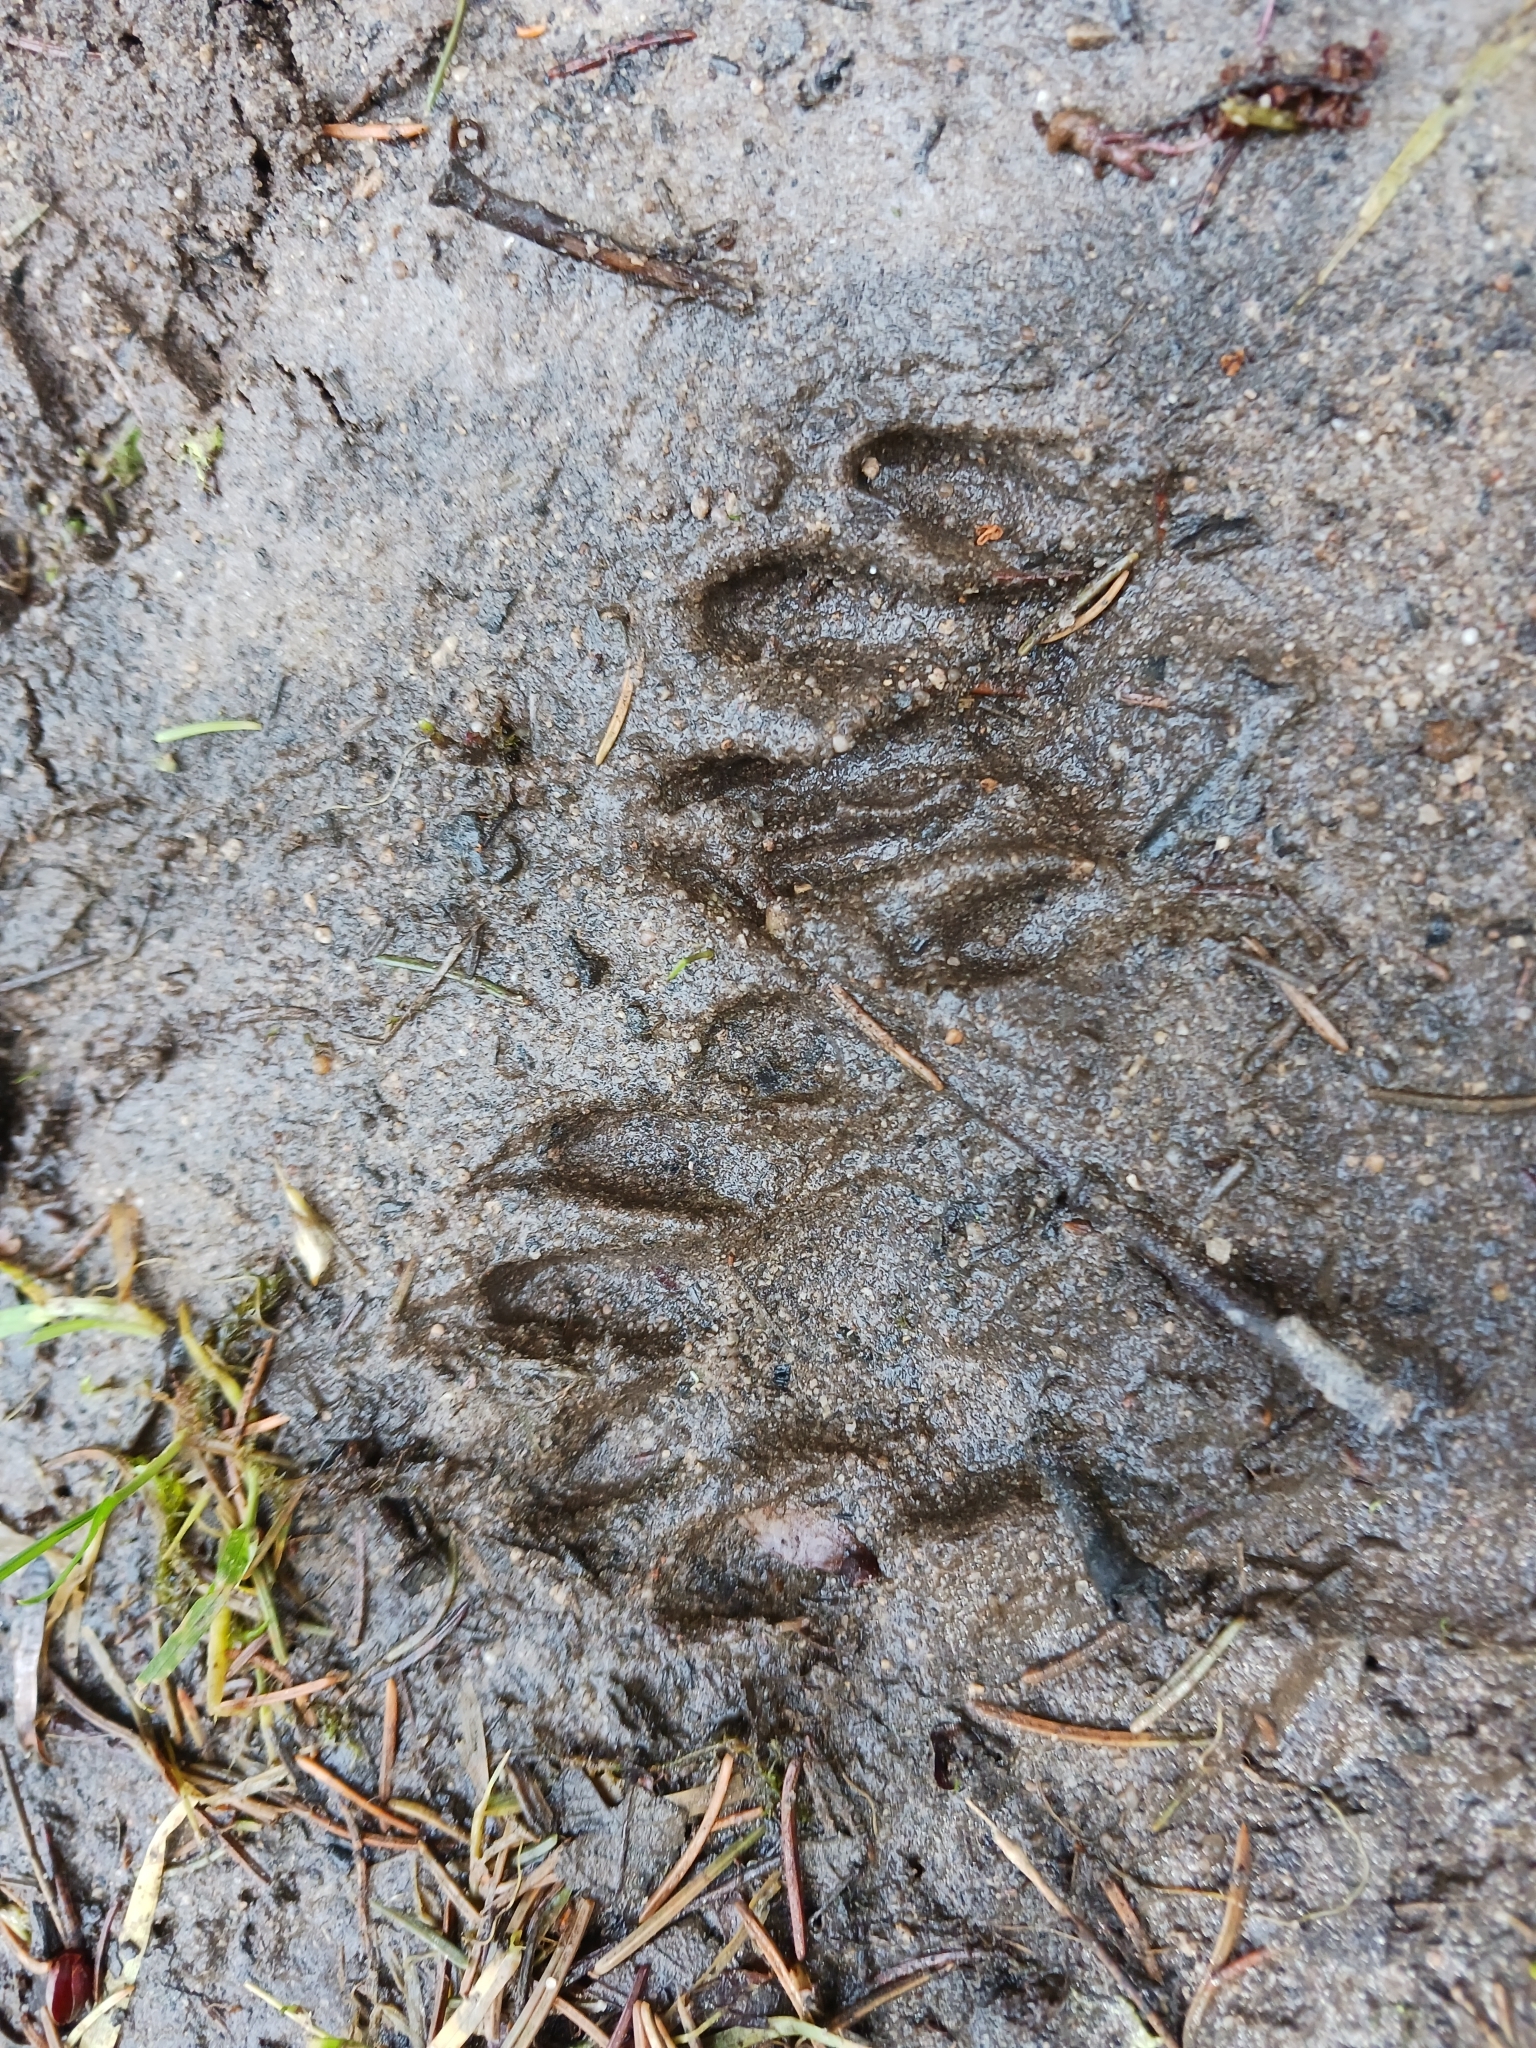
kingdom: Animalia
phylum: Chordata
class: Mammalia
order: Carnivora
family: Procyonidae
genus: Procyon
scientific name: Procyon lotor
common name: Raccoon
